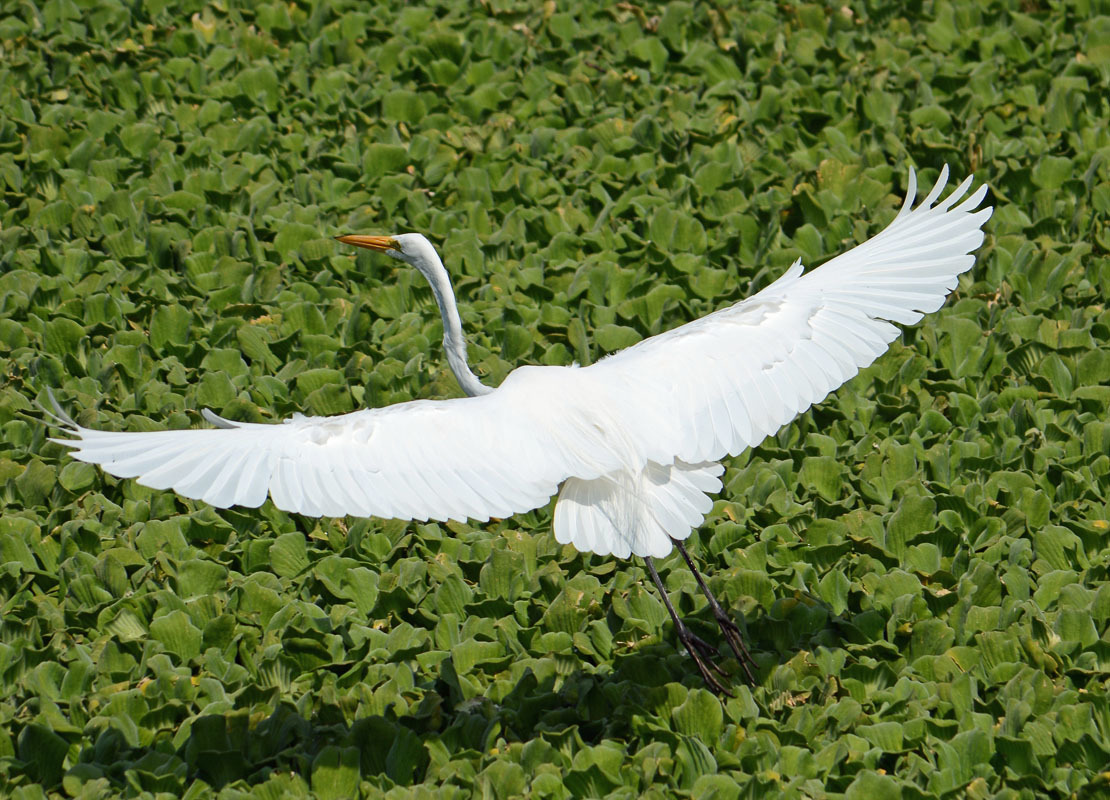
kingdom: Animalia
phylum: Chordata
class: Aves
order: Pelecaniformes
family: Ardeidae
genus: Ardea
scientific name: Ardea alba
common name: Great egret
